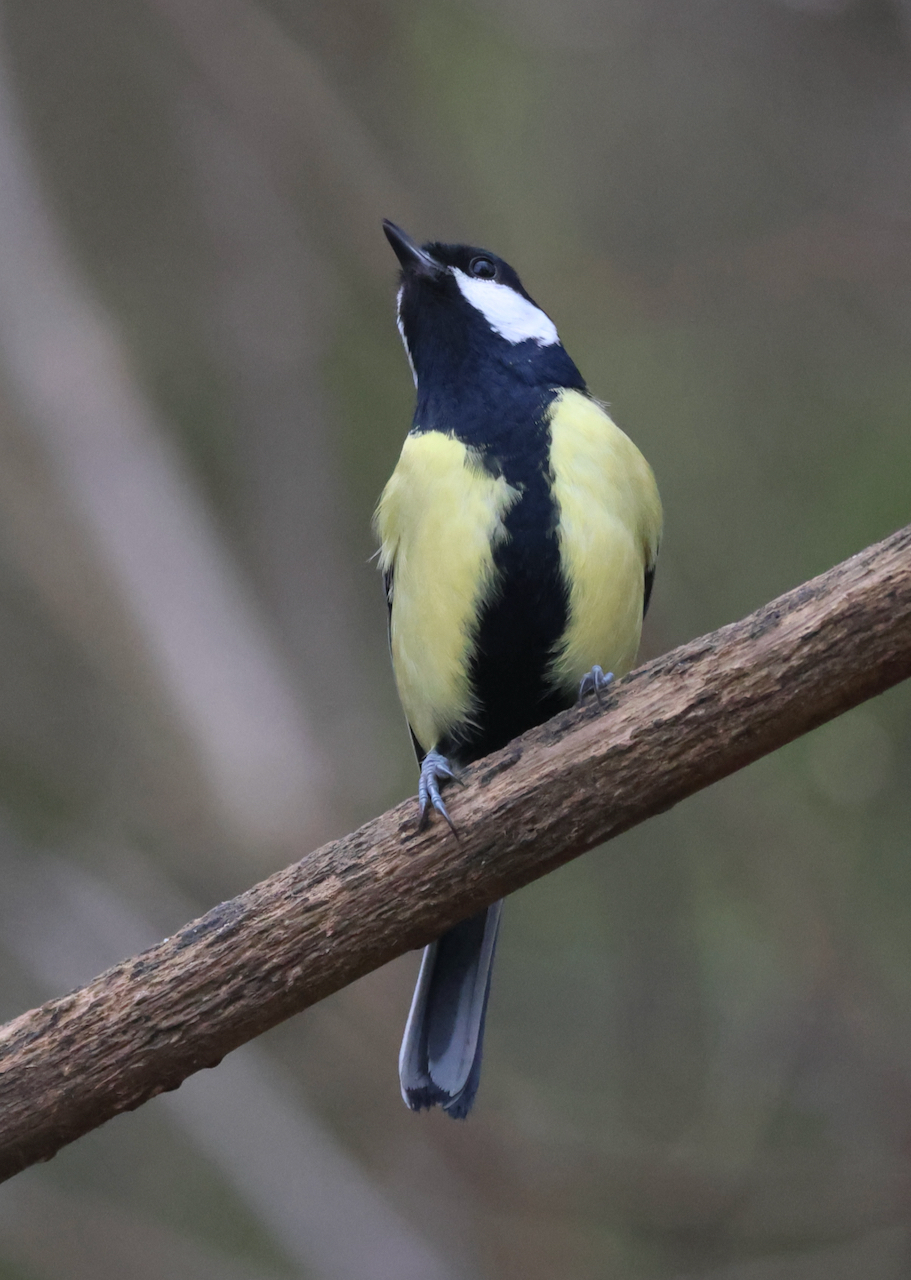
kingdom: Animalia
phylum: Chordata
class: Aves
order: Passeriformes
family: Paridae
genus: Parus
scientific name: Parus major
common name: Great tit
